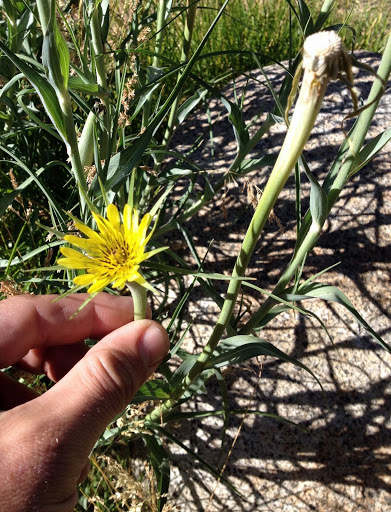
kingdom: Plantae
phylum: Tracheophyta
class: Magnoliopsida
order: Asterales
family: Asteraceae
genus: Tragopogon
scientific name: Tragopogon dubius
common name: Yellow salsify
